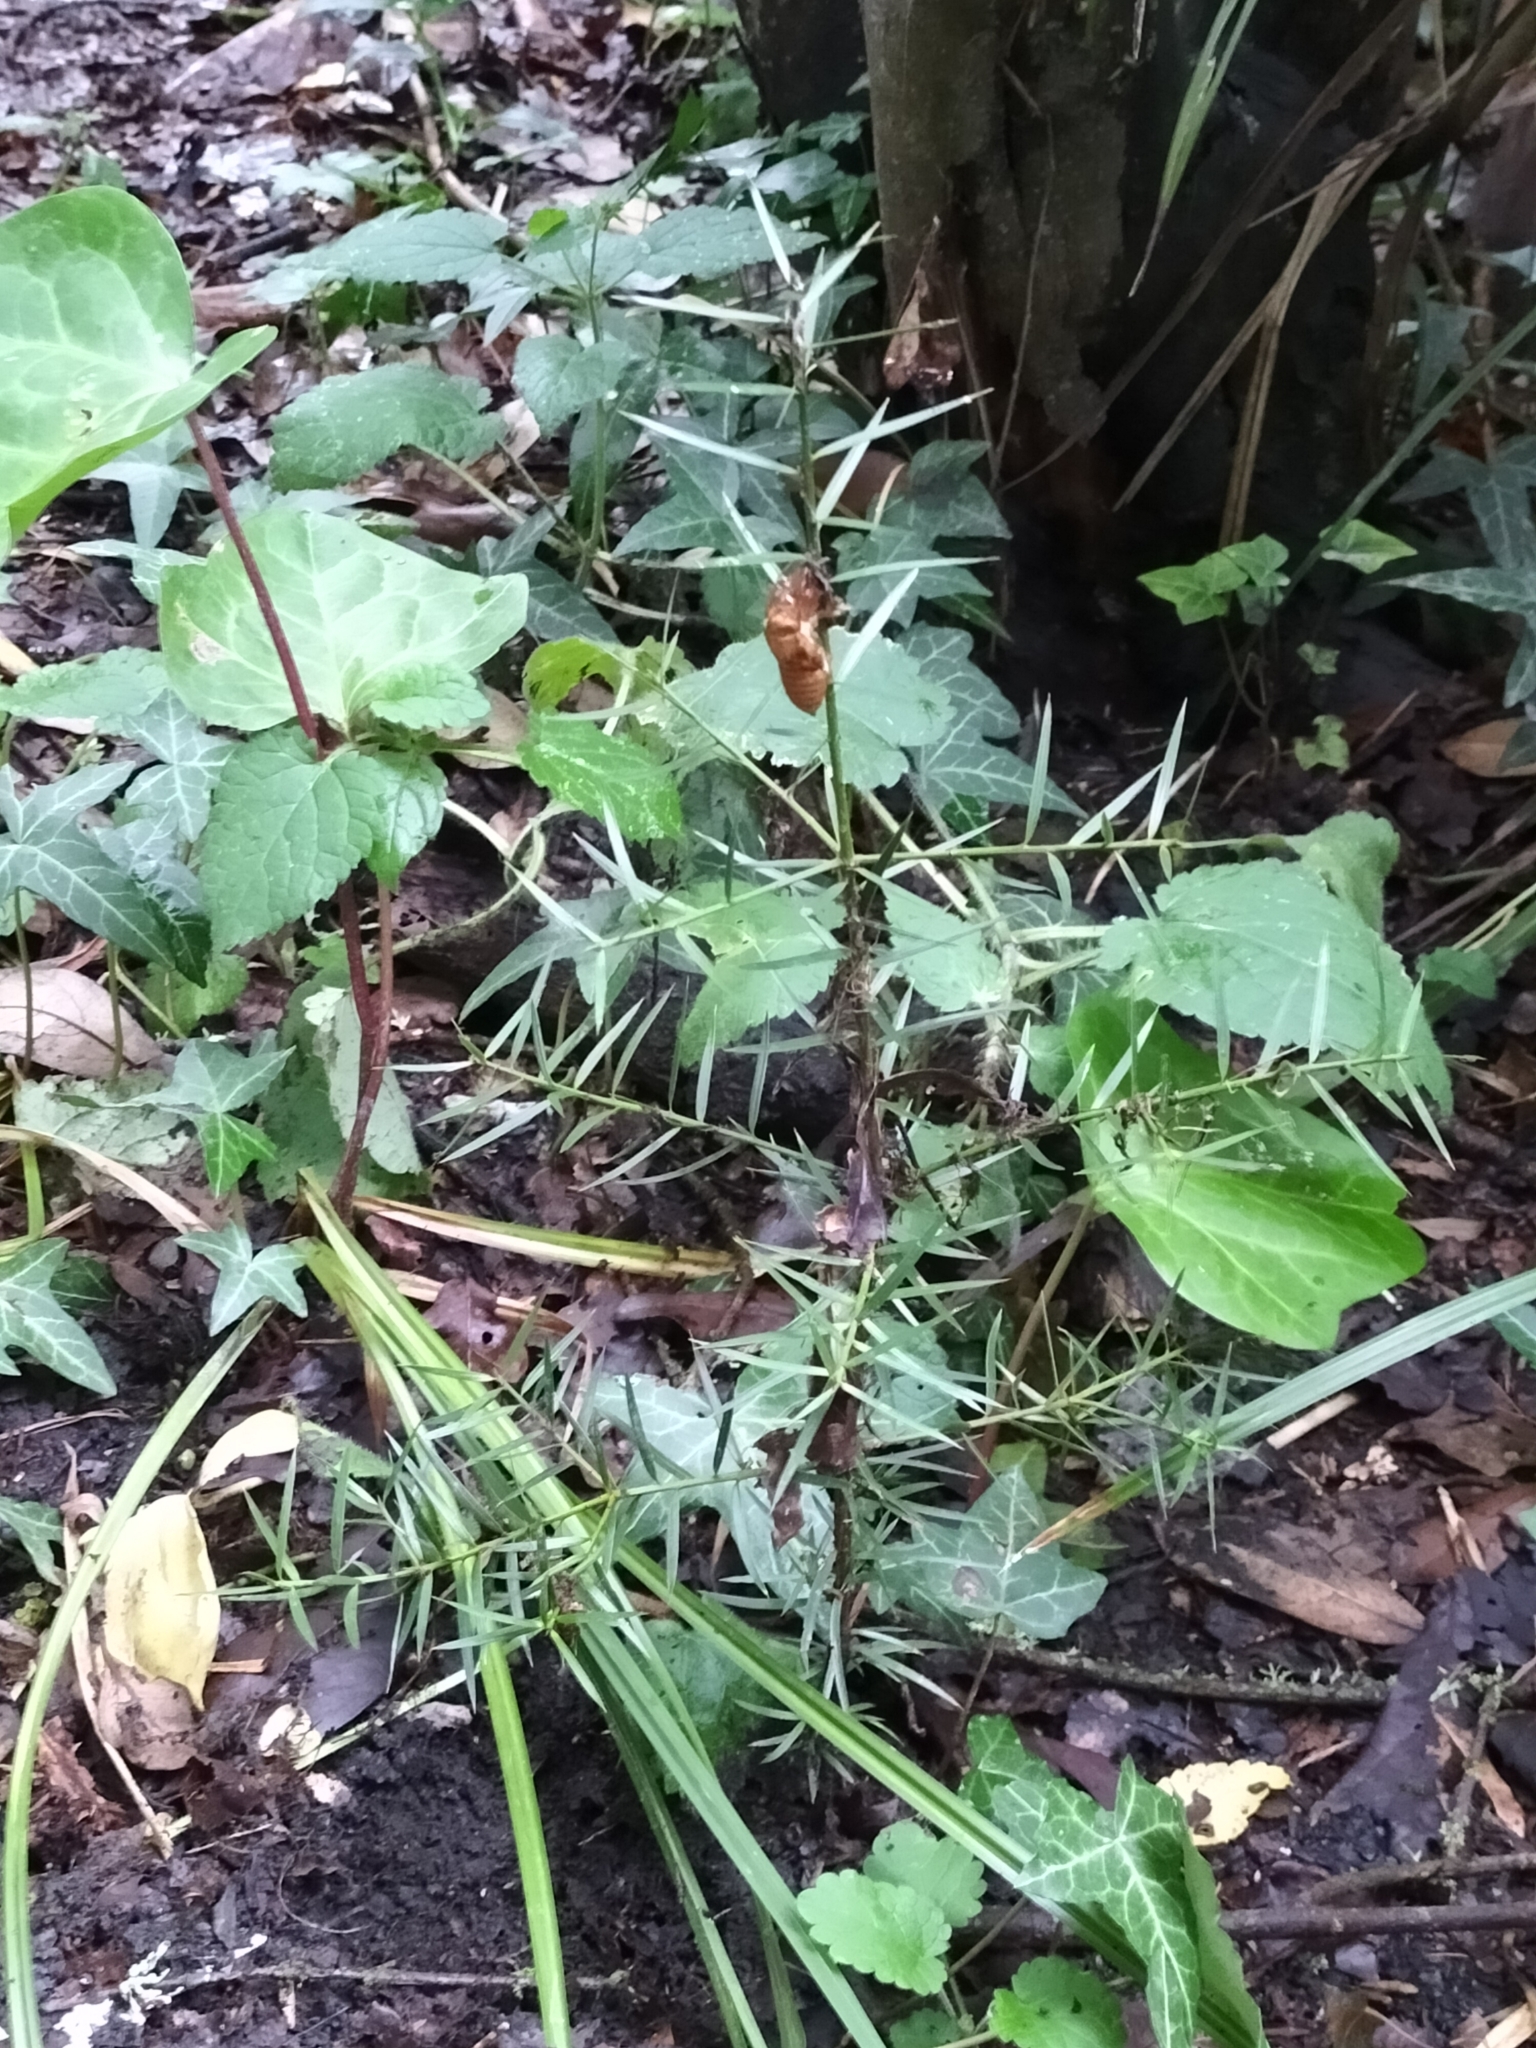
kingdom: Plantae
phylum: Tracheophyta
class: Pinopsida
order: Pinales
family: Podocarpaceae
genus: Podocarpus
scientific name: Podocarpus totara
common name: Totara
